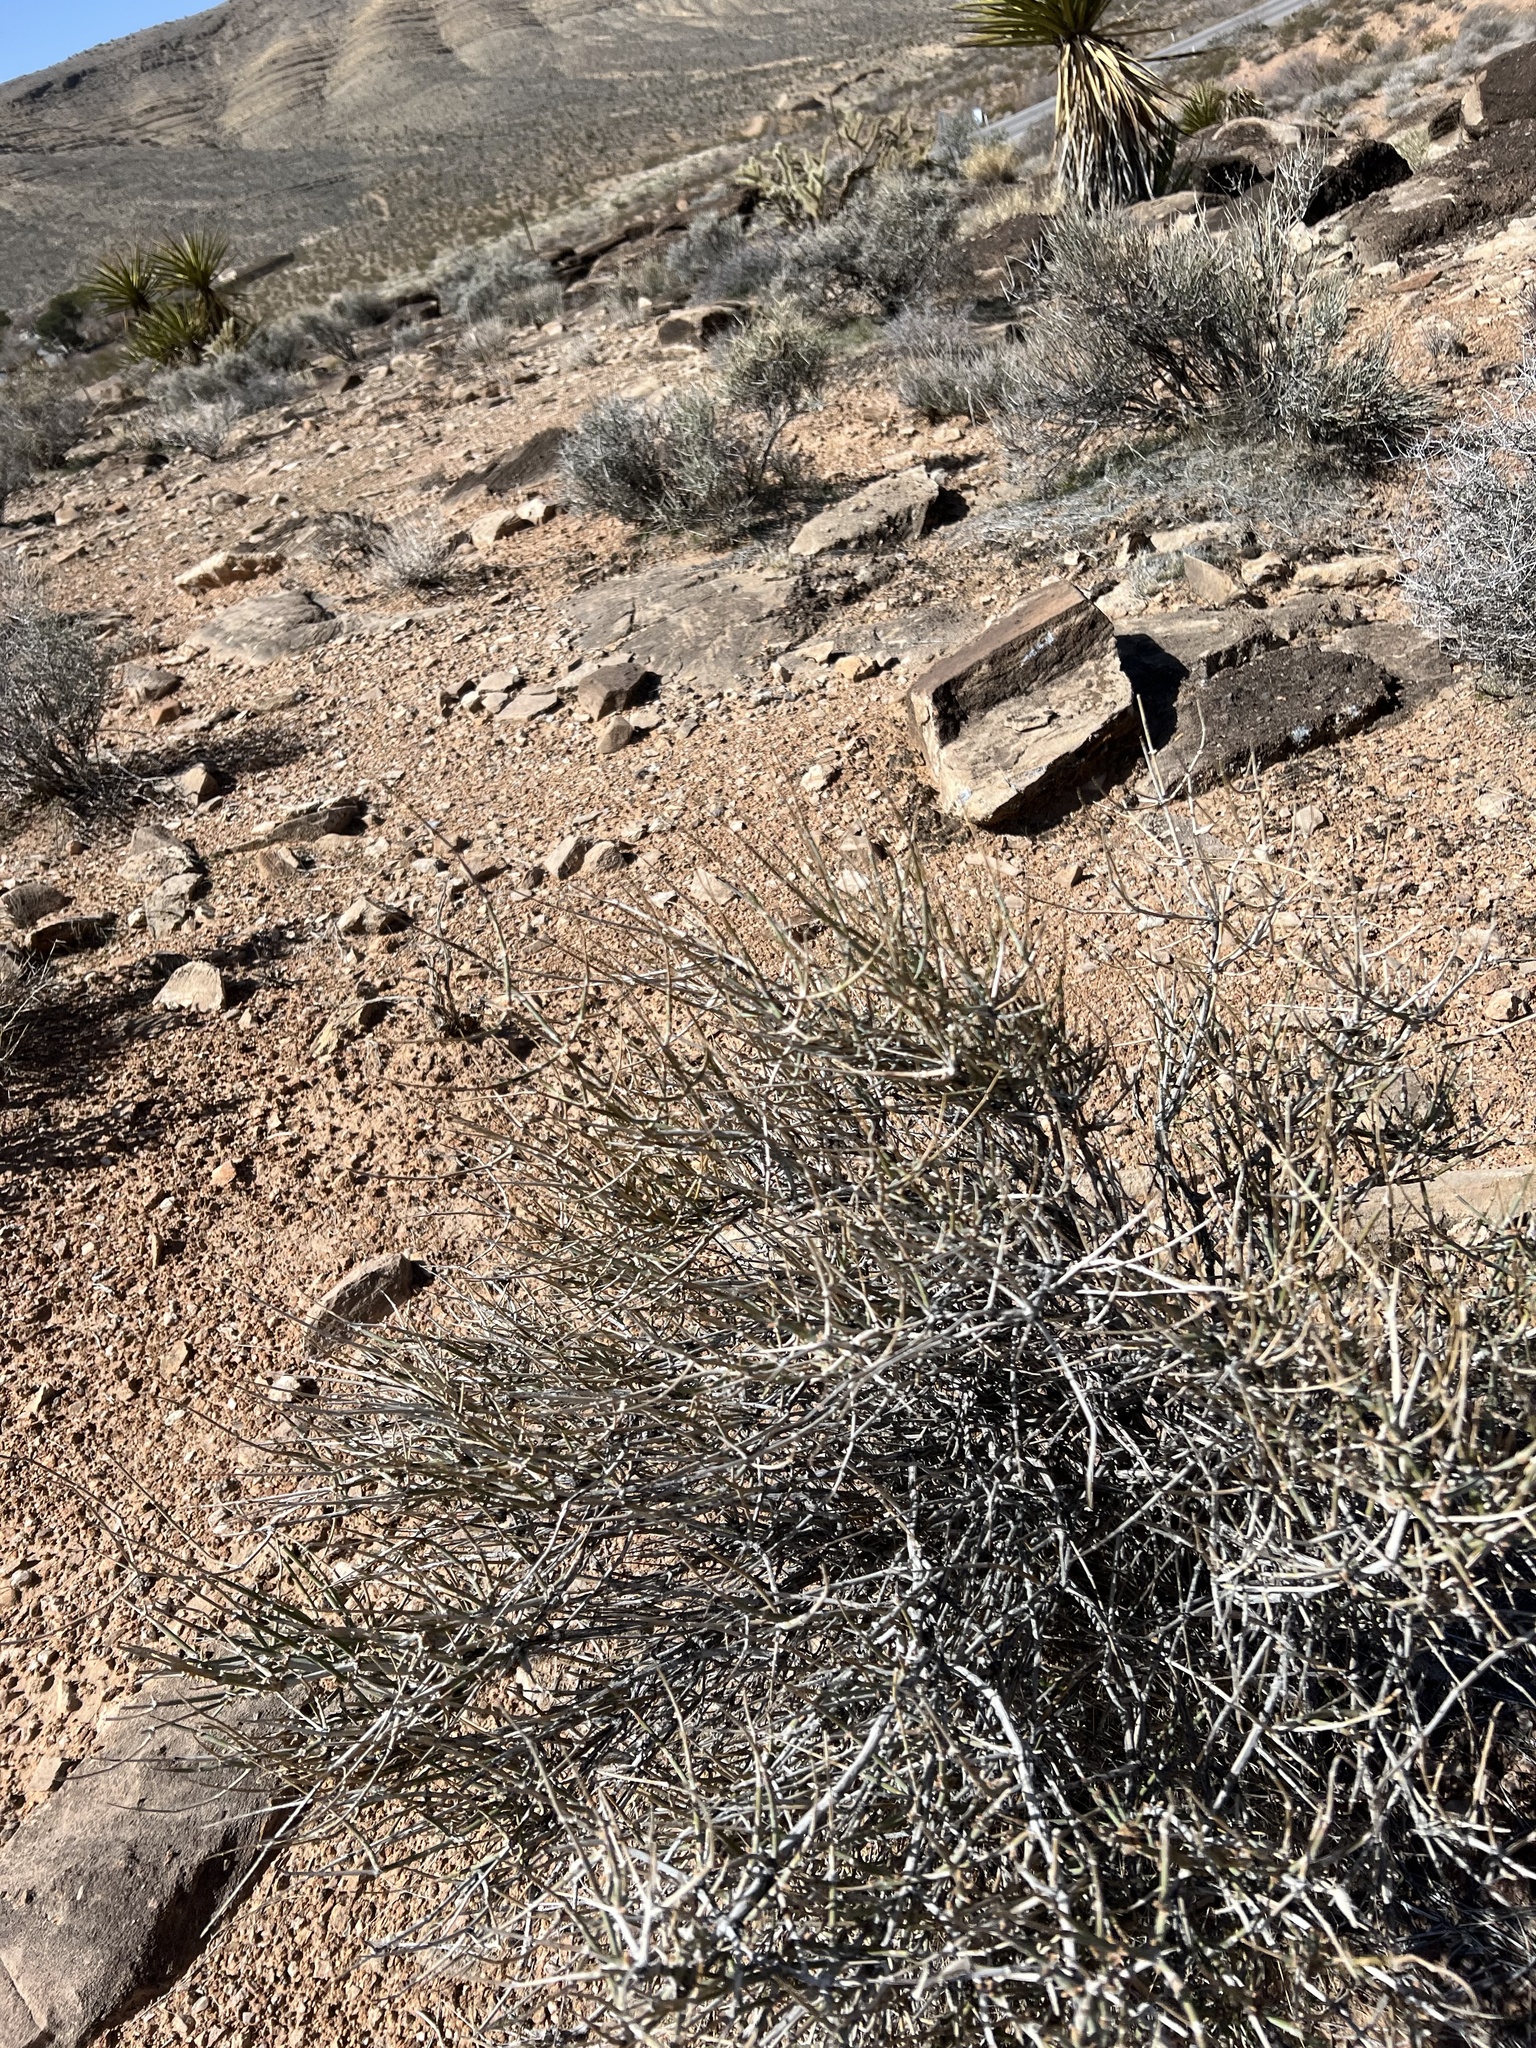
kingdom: Plantae
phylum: Tracheophyta
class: Gnetopsida
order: Ephedrales
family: Ephedraceae
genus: Ephedra
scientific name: Ephedra nevadensis
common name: Gray ephedra
